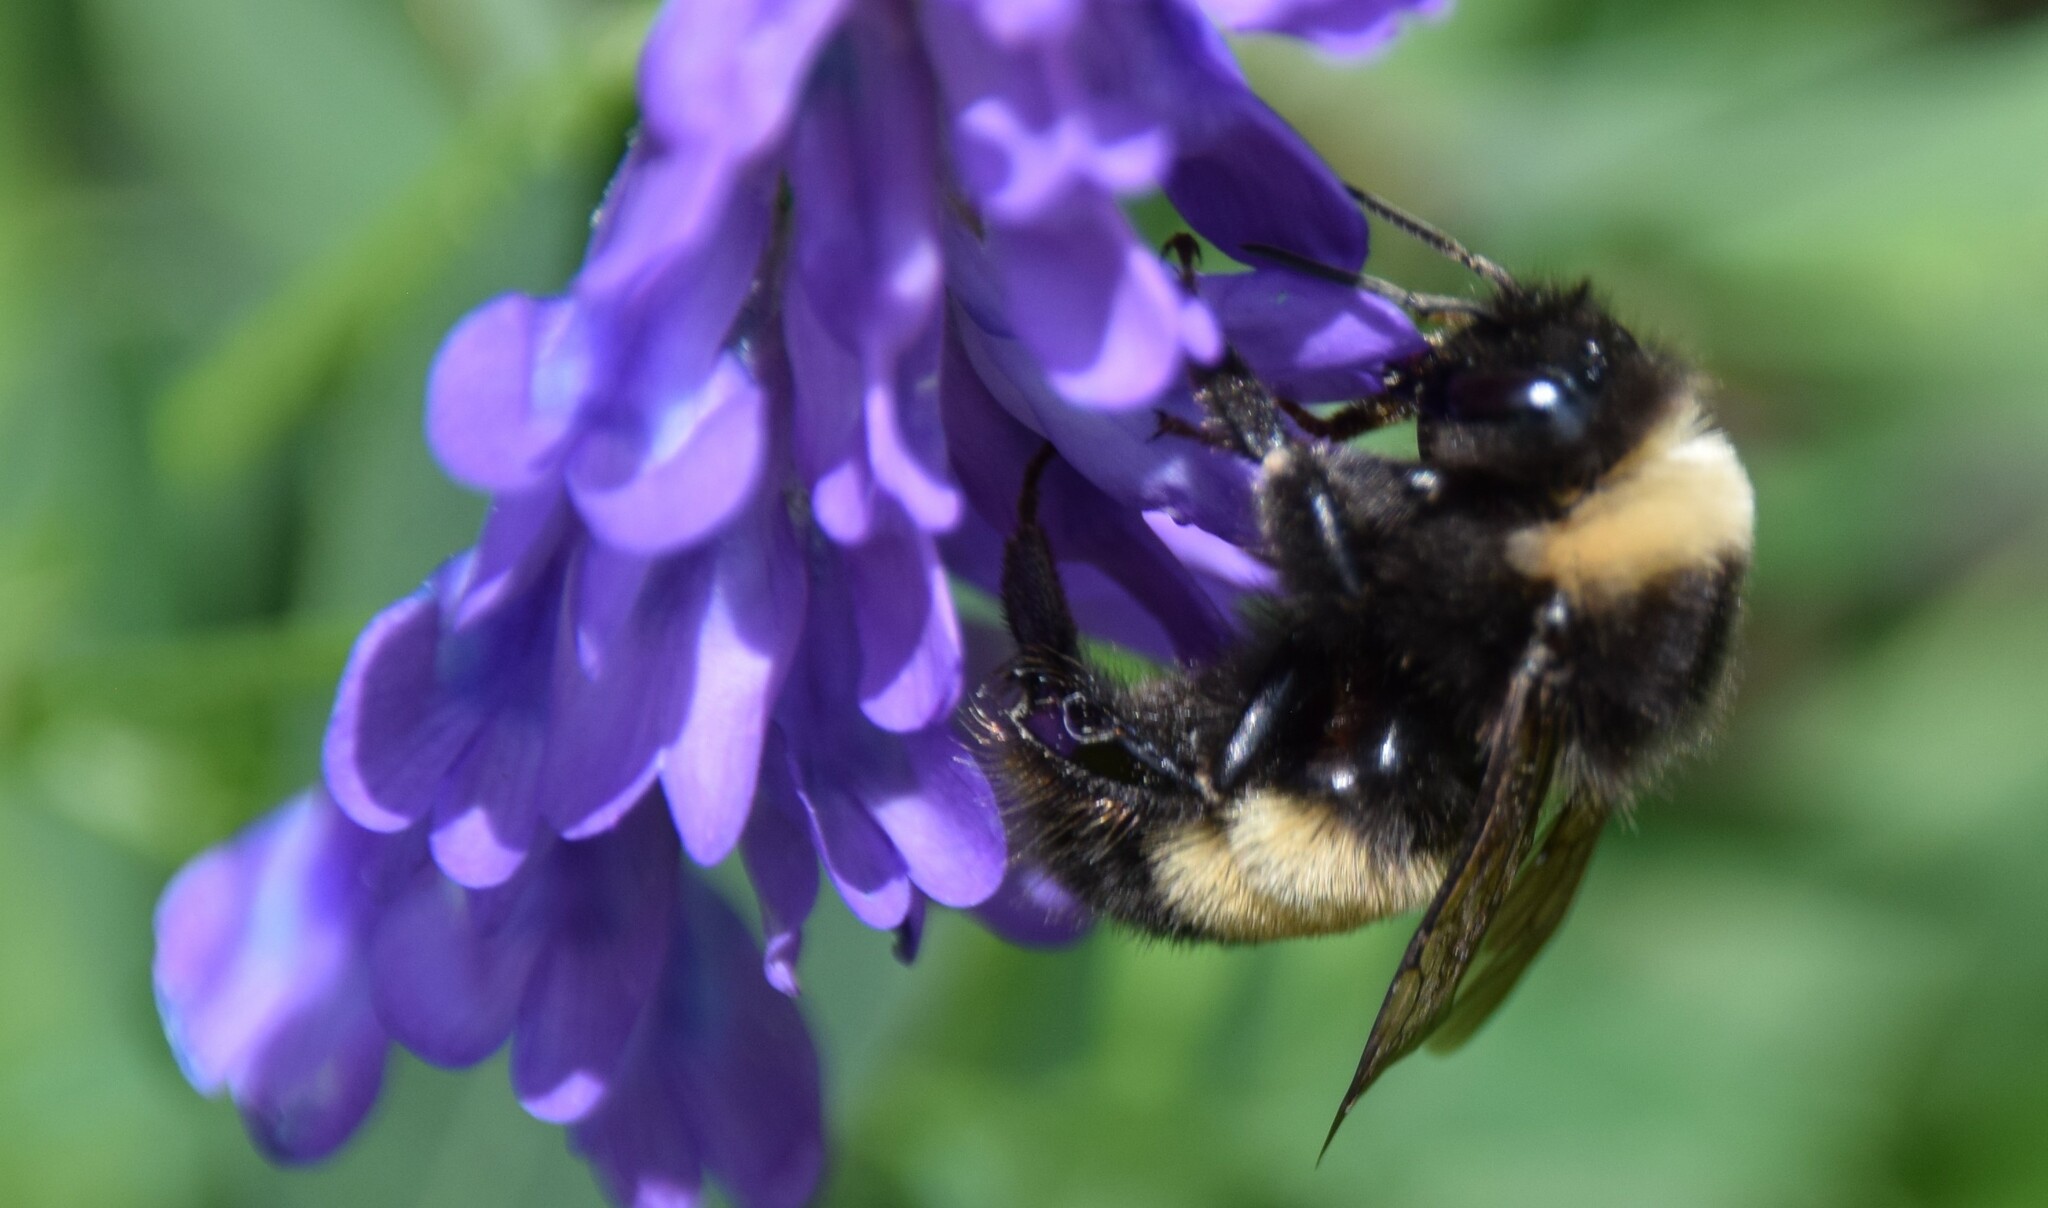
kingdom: Animalia
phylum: Arthropoda
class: Insecta
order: Hymenoptera
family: Apidae
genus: Bombus
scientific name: Bombus terricola
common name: Yellow-banded bumble bee
